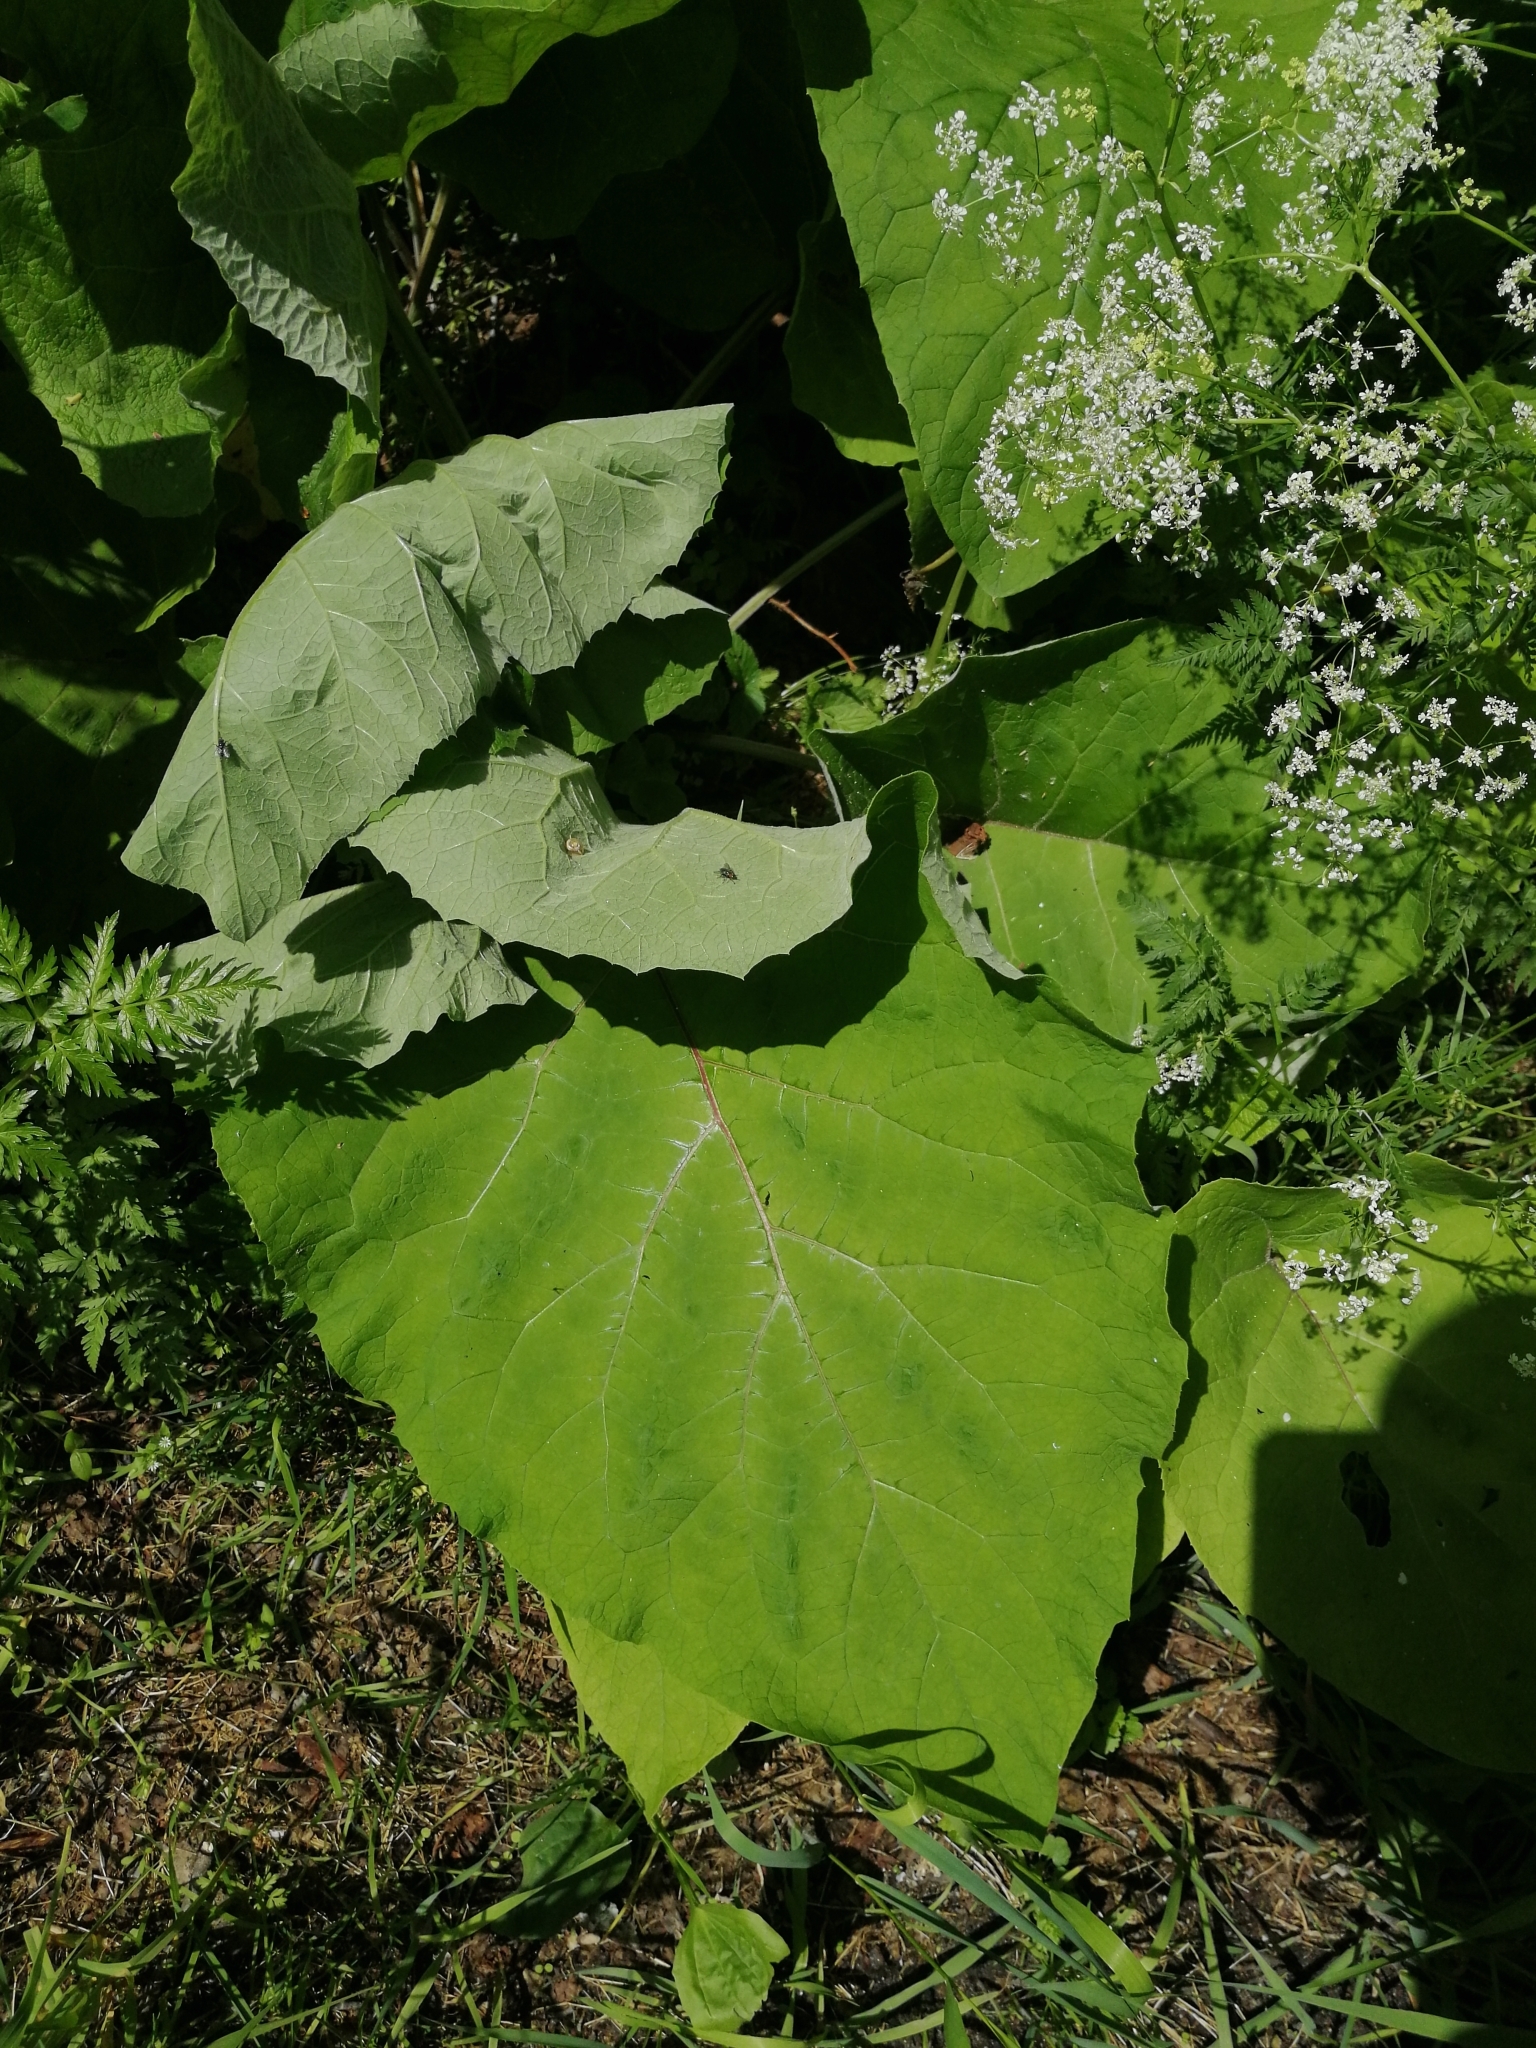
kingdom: Plantae
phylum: Tracheophyta
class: Magnoliopsida
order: Asterales
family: Asteraceae
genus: Arctium
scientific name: Arctium
